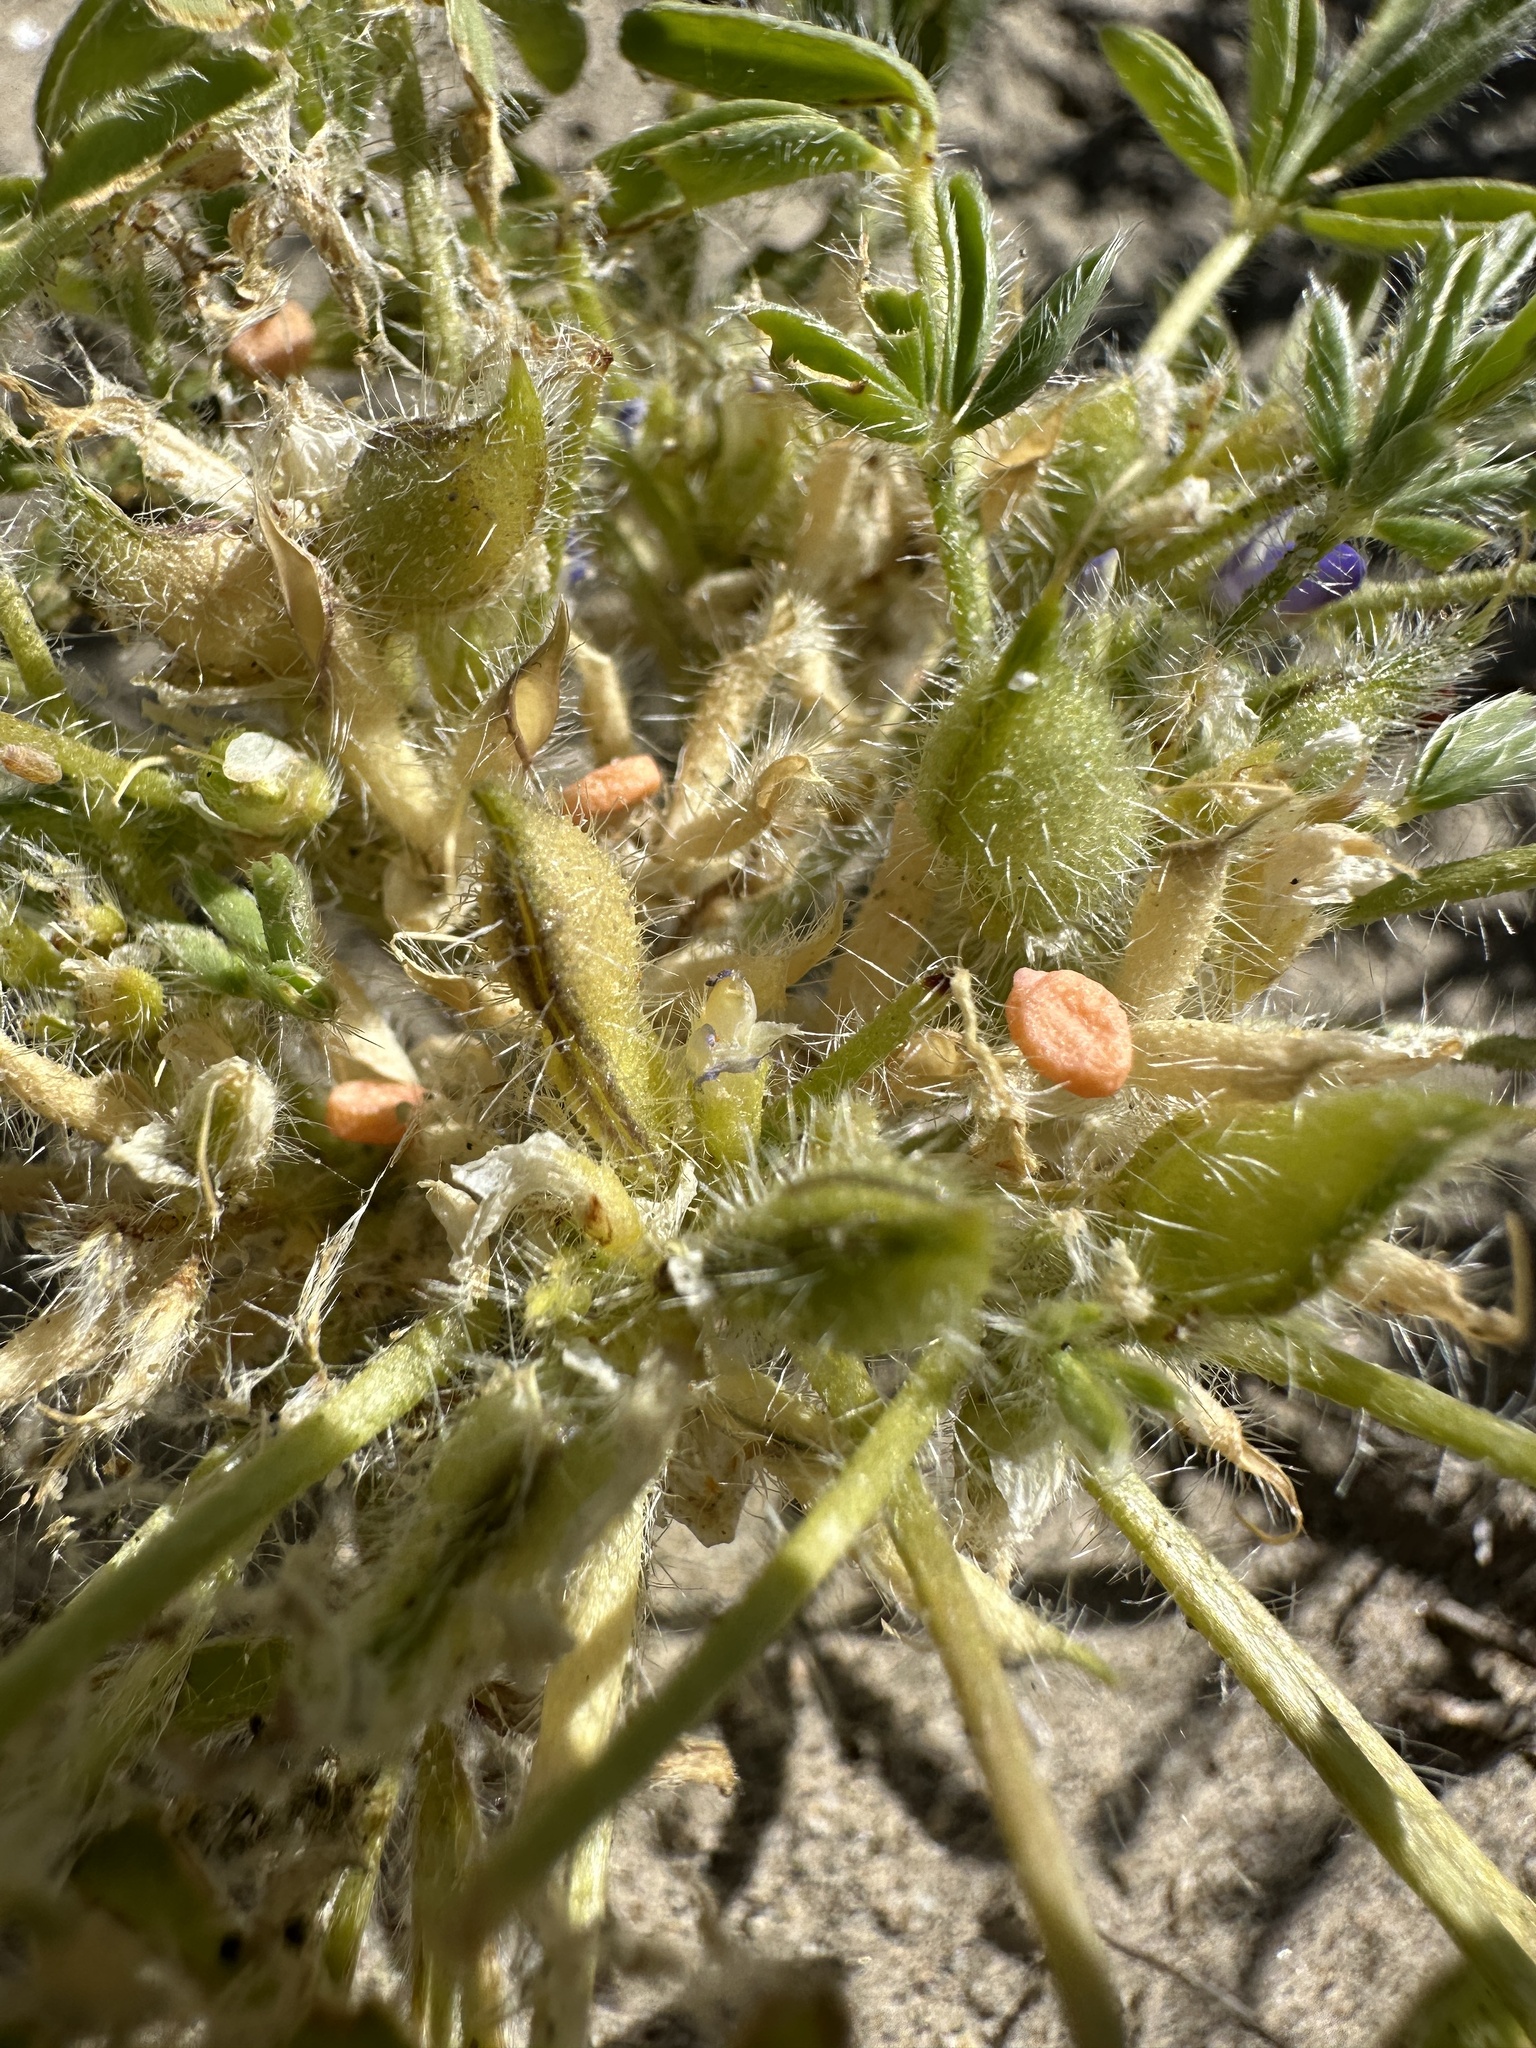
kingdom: Plantae
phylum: Tracheophyta
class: Magnoliopsida
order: Fabales
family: Fabaceae
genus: Lupinus
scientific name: Lupinus pusillus
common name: Low lupine
